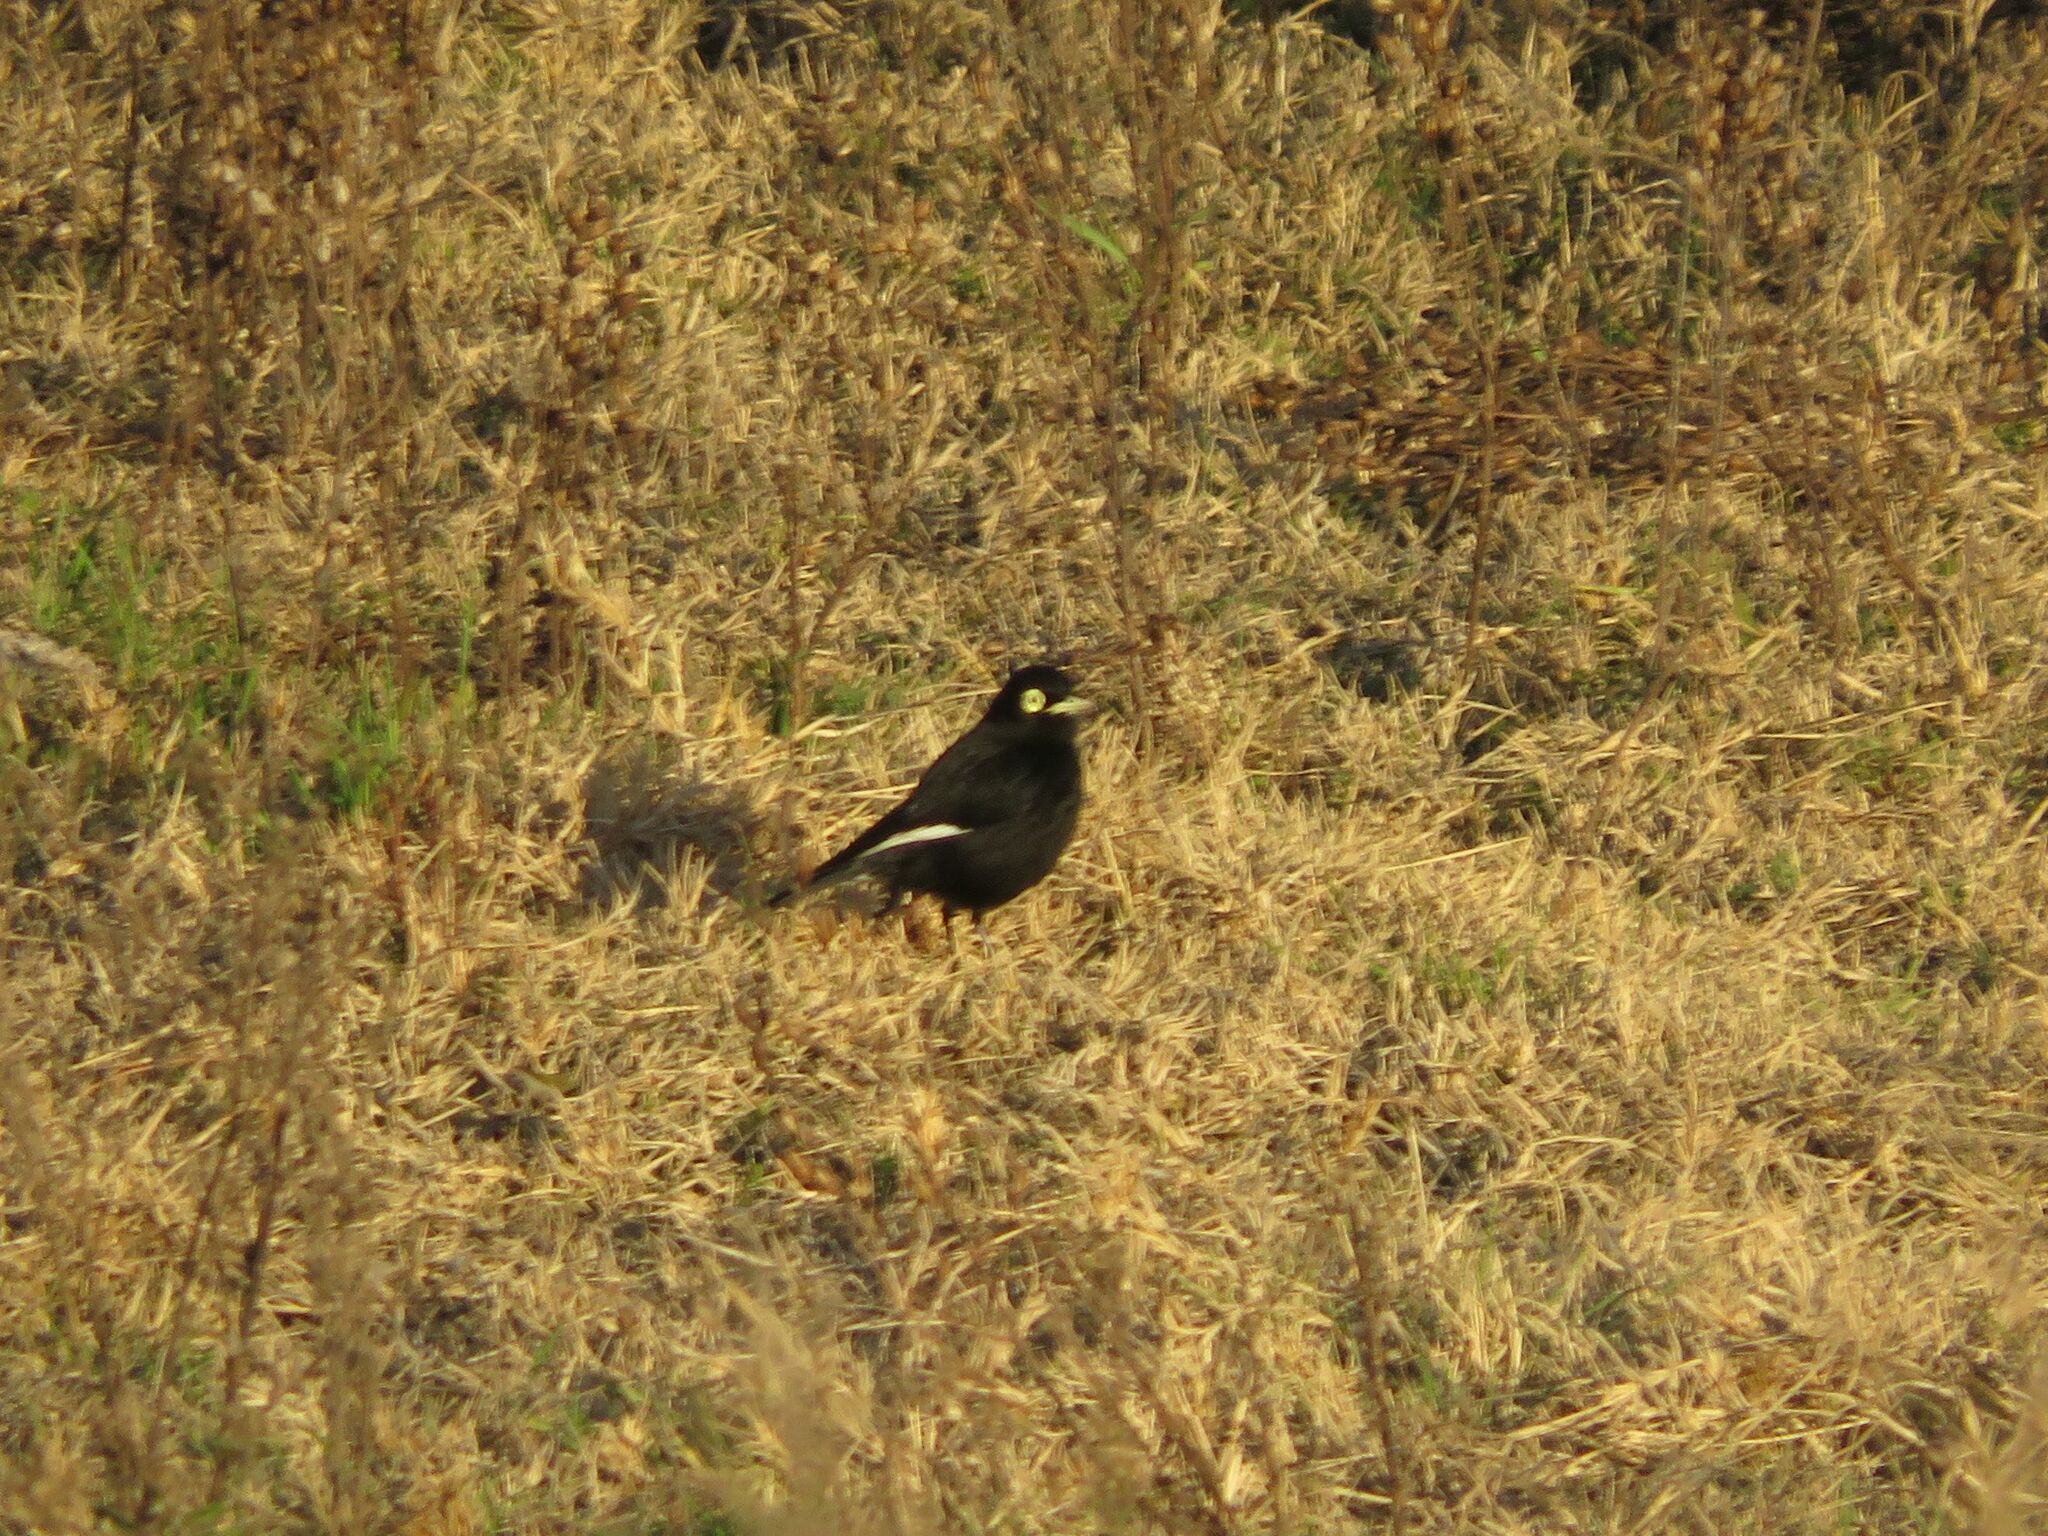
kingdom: Animalia
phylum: Chordata
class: Aves
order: Passeriformes
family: Tyrannidae
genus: Hymenops
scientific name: Hymenops perspicillatus
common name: Spectacled tyrant
